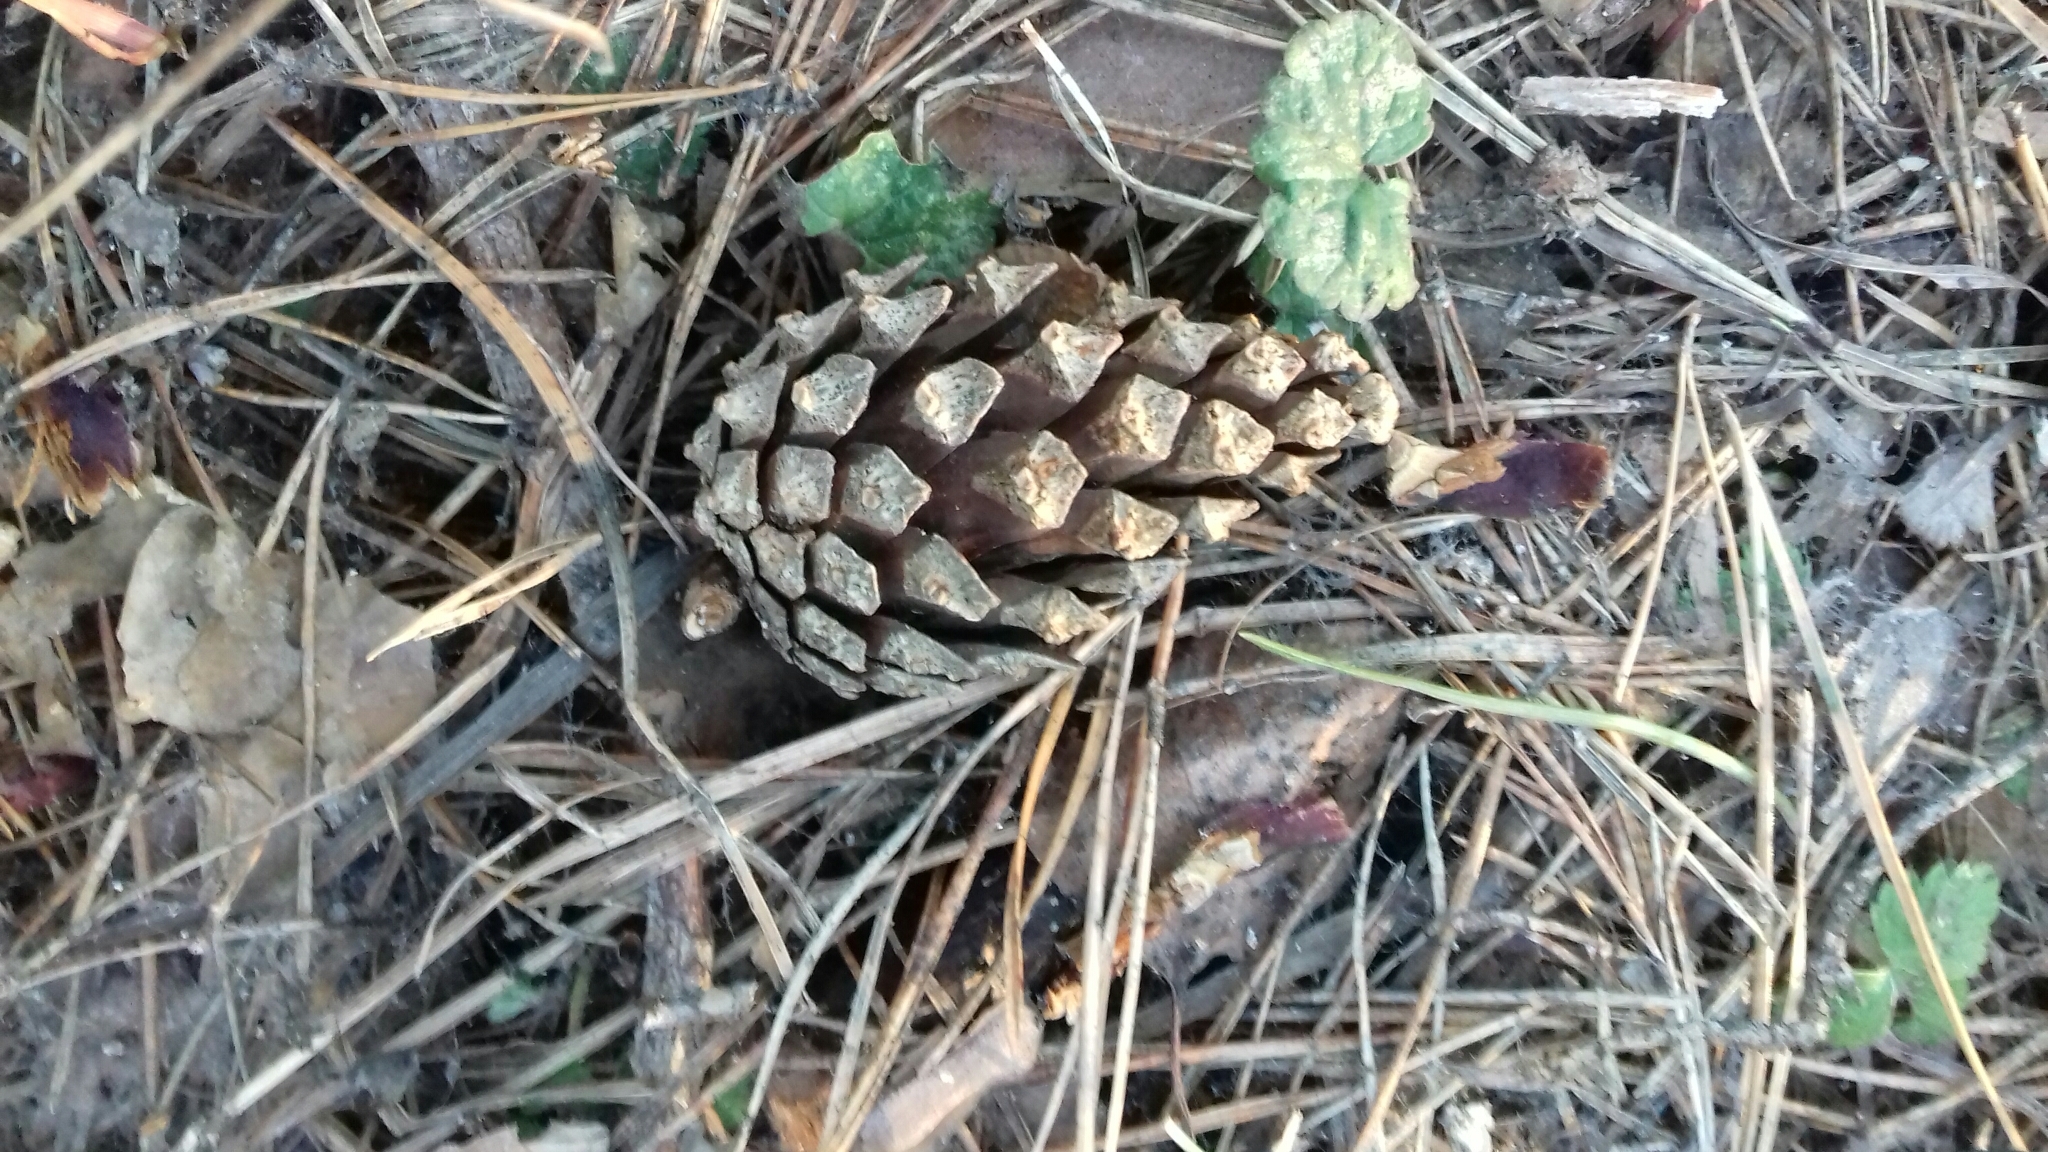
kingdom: Plantae
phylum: Tracheophyta
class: Pinopsida
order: Pinales
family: Pinaceae
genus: Pinus
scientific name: Pinus sylvestris
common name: Scots pine
